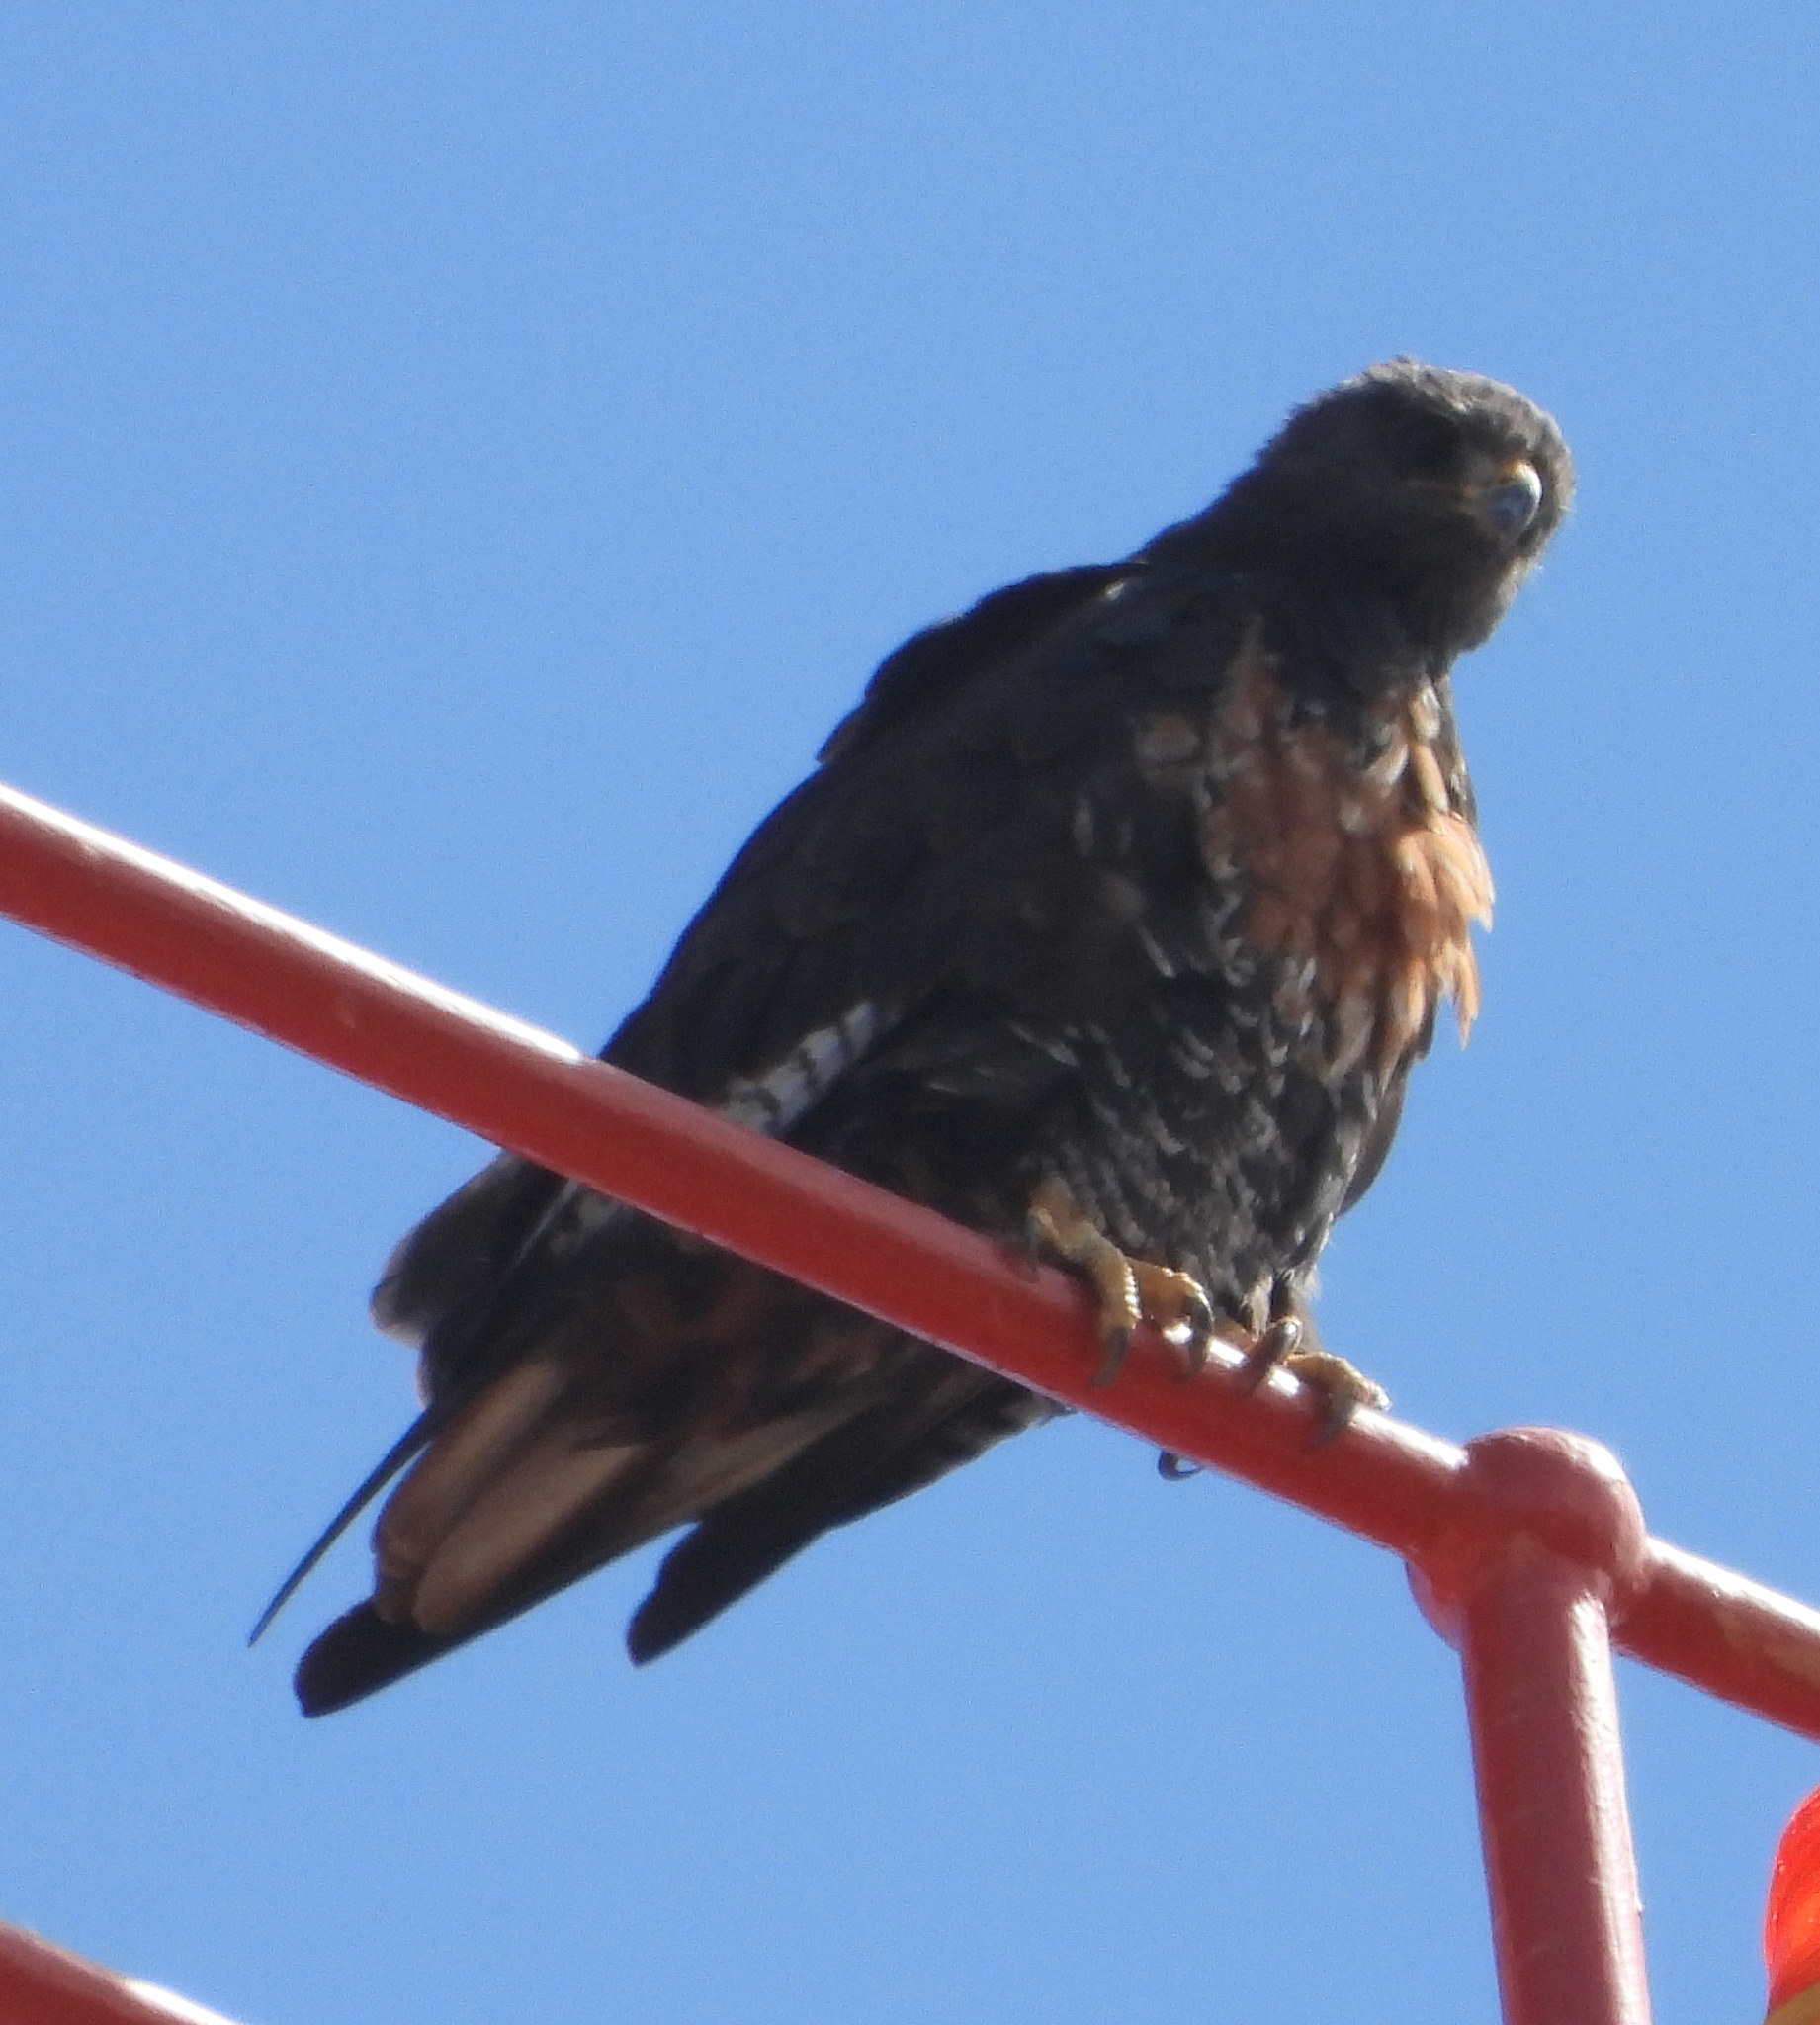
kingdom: Animalia
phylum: Chordata
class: Aves
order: Accipitriformes
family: Accipitridae
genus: Buteo
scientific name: Buteo rufofuscus
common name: Jackal buzzard
